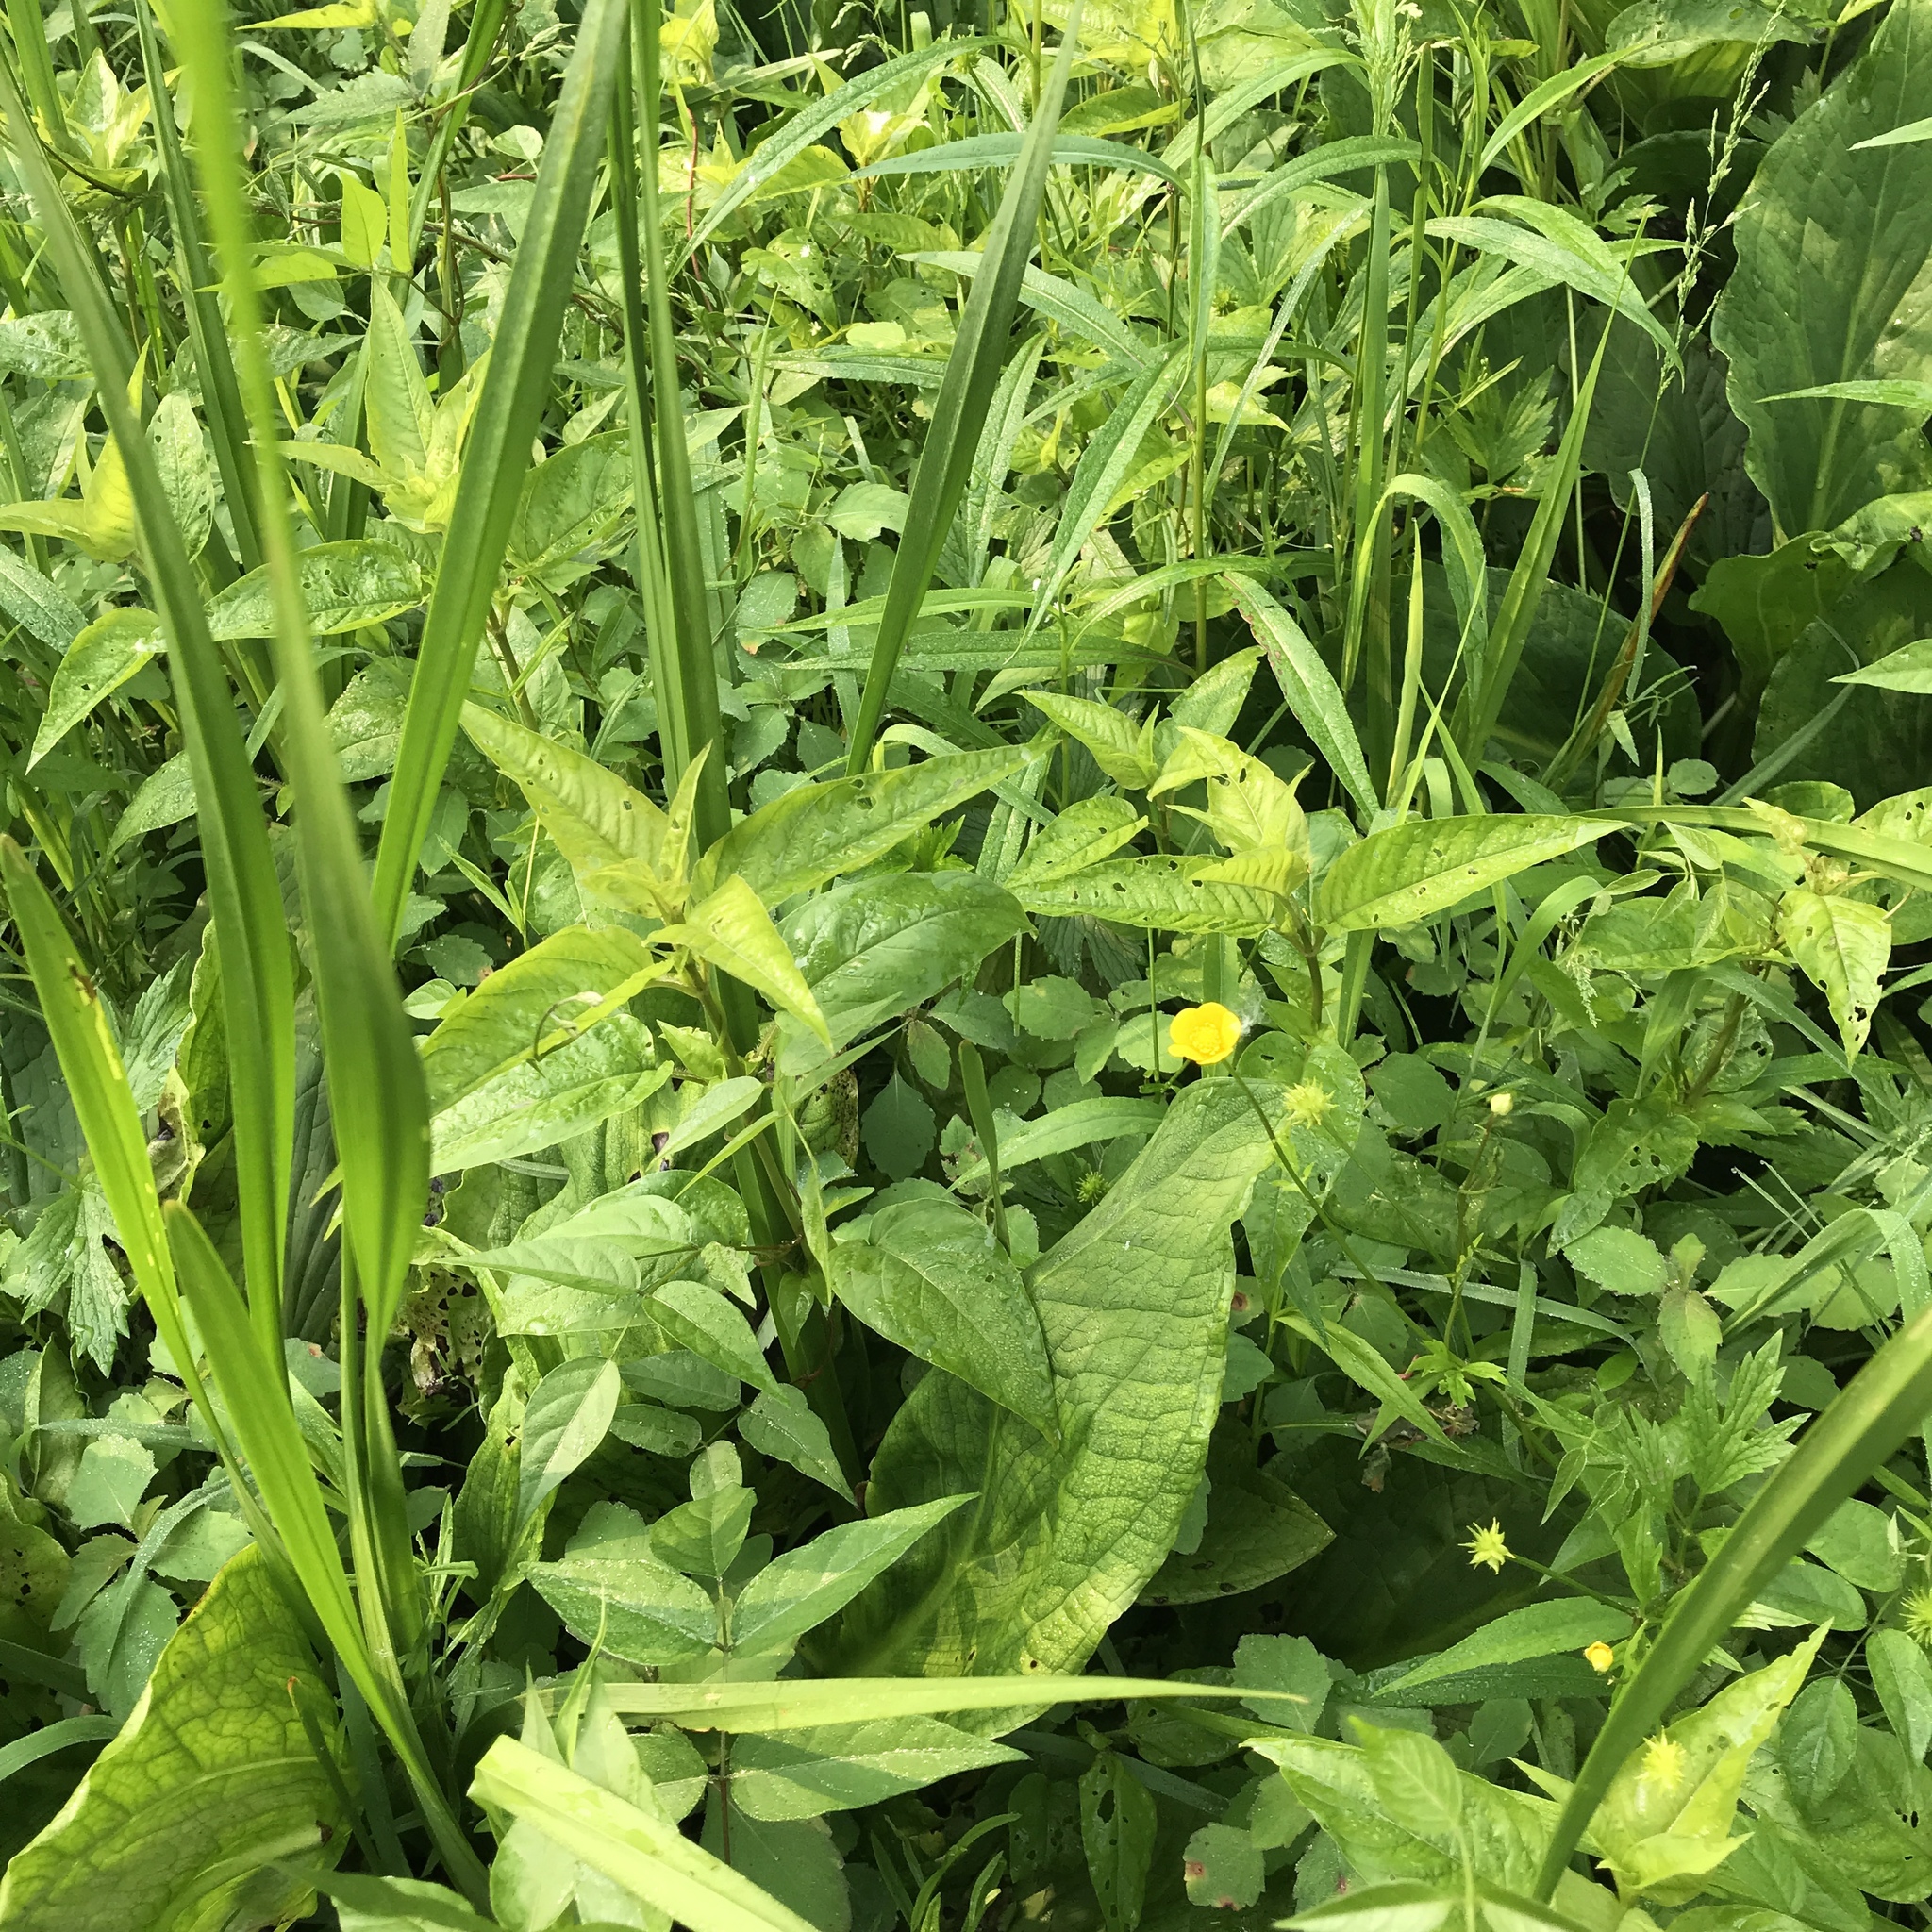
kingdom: Plantae
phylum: Tracheophyta
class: Magnoliopsida
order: Ericales
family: Primulaceae
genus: Lysimachia
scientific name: Lysimachia ciliata
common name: Fringed loosestrife
